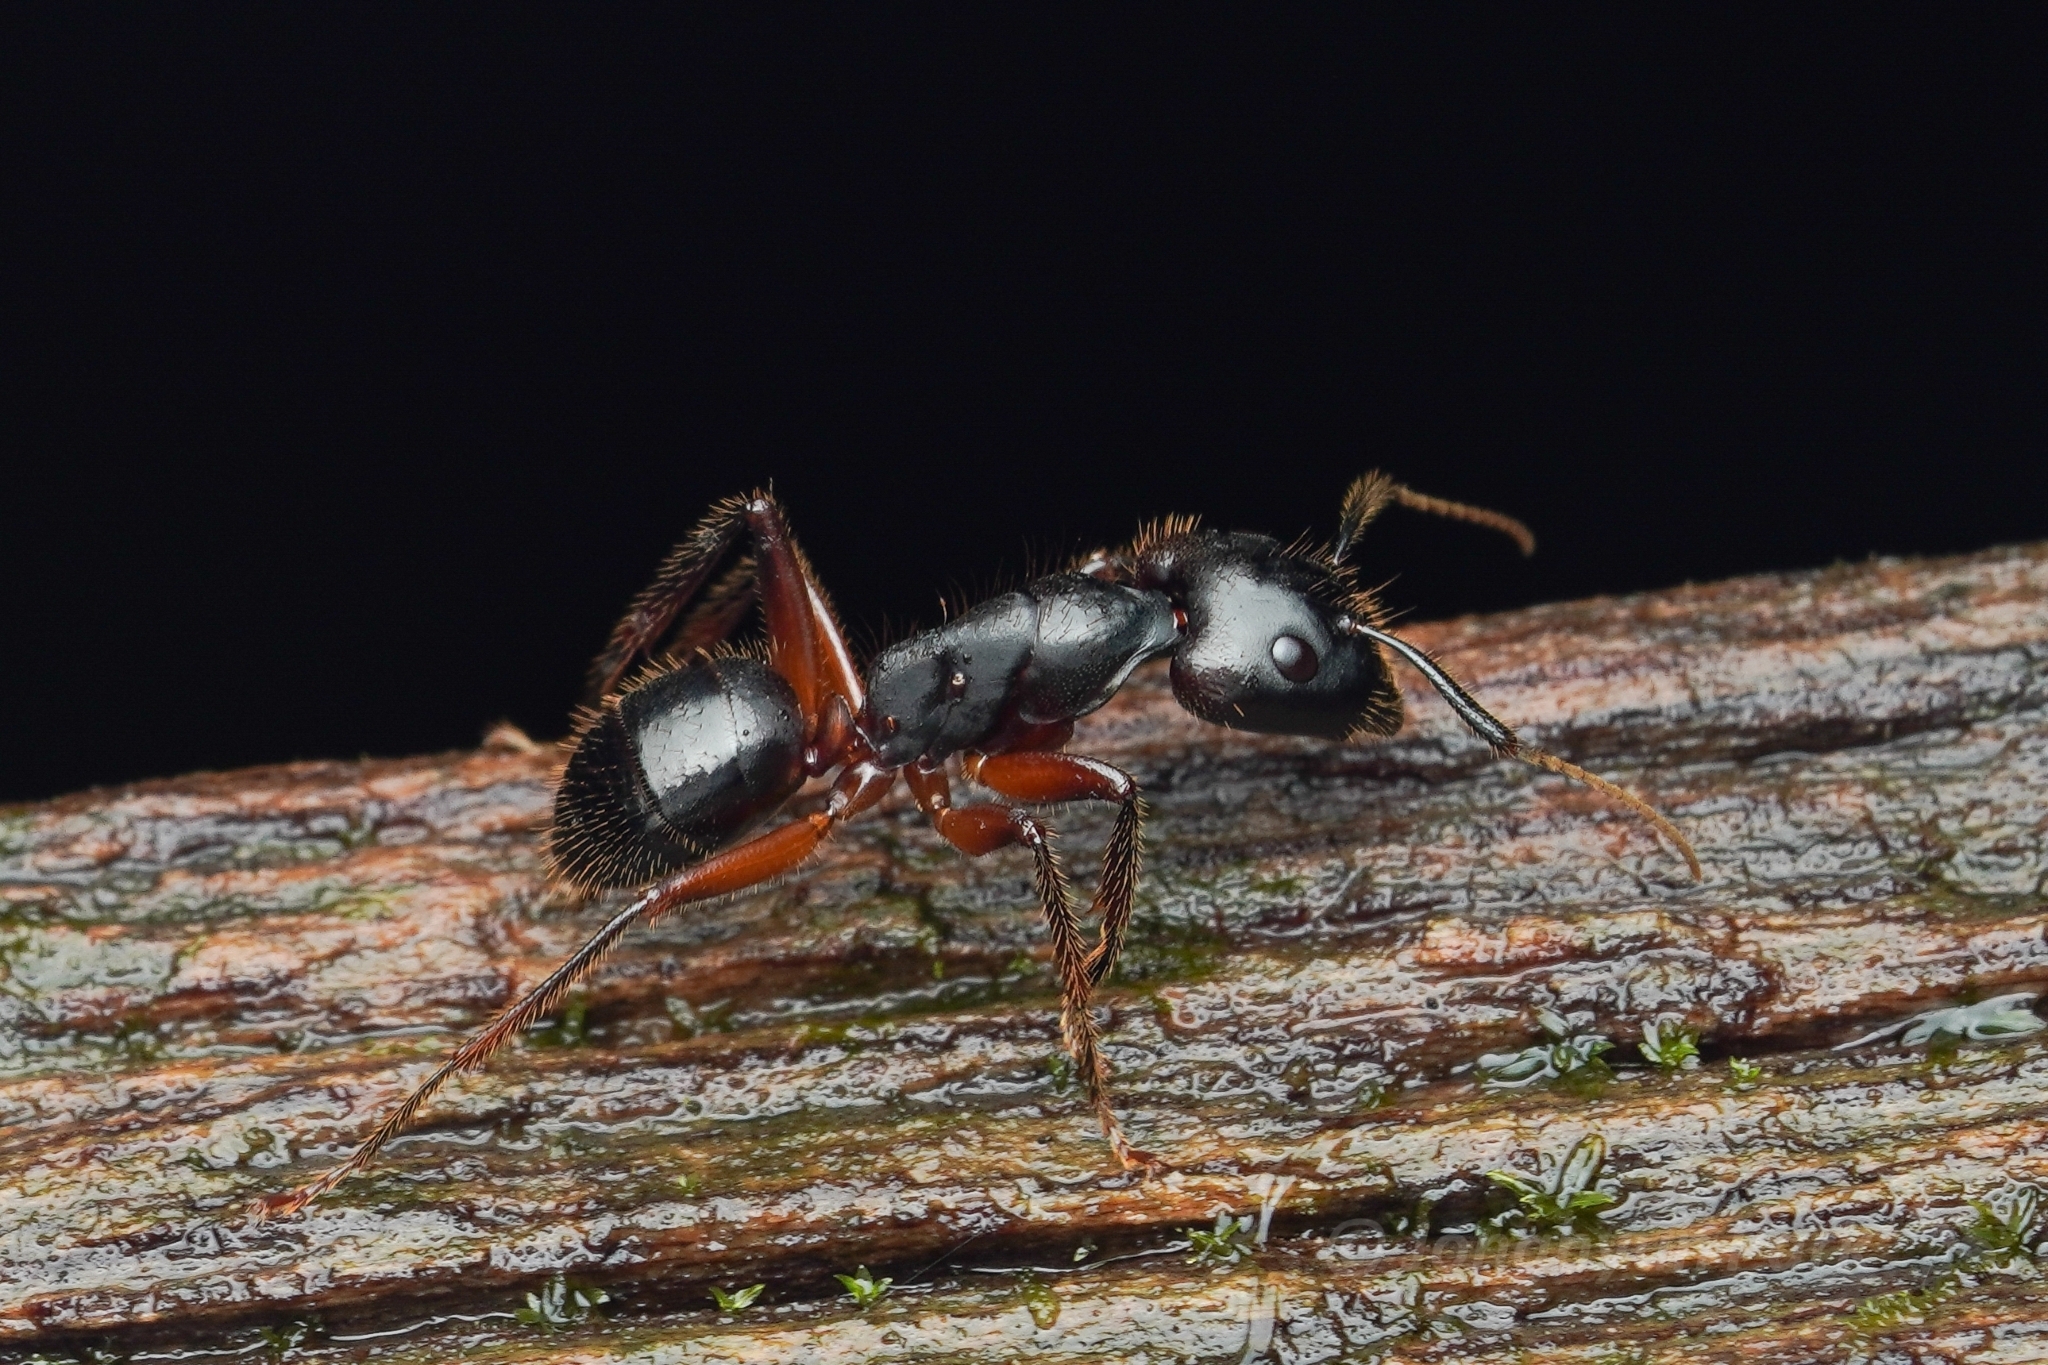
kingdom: Animalia
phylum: Arthropoda
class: Insecta
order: Hymenoptera
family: Formicidae
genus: Camponotus
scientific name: Camponotus rufifemur
